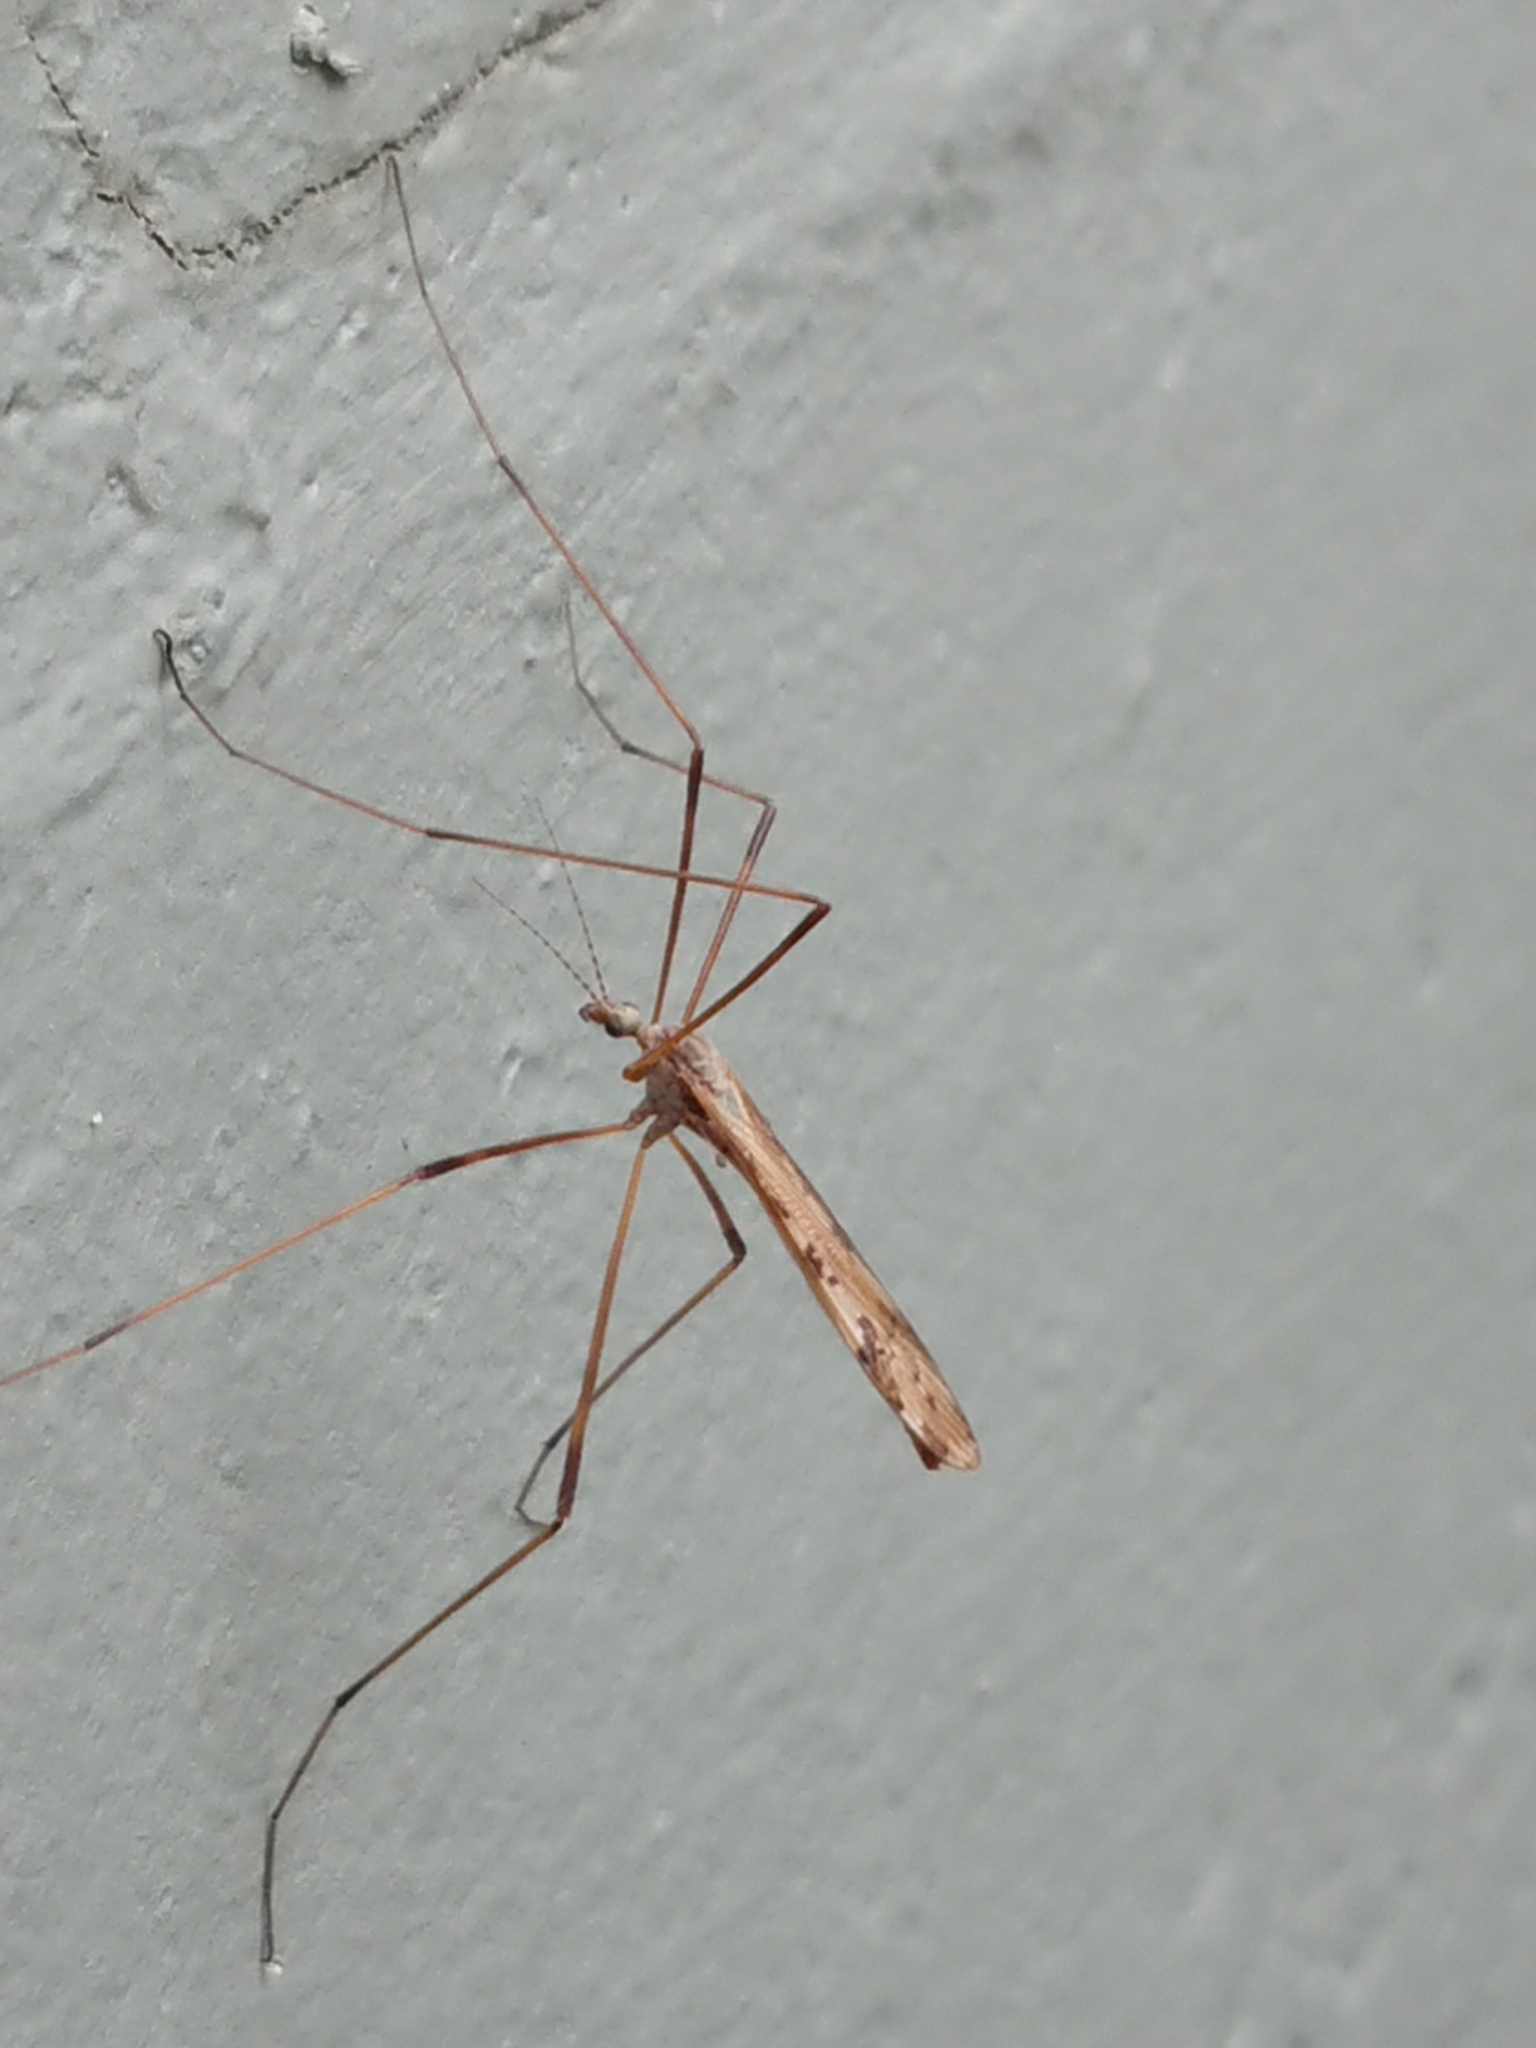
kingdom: Animalia
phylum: Arthropoda
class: Insecta
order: Diptera
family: Limoniidae
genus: Paralimnophila
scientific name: Paralimnophila skusei
